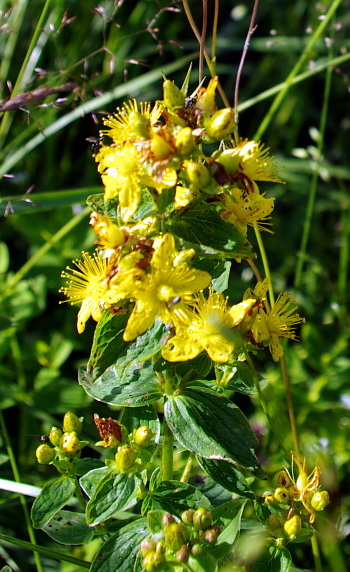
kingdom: Plantae
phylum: Tracheophyta
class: Magnoliopsida
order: Malpighiales
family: Hypericaceae
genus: Hypericum
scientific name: Hypericum maculatum
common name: Imperforate st. john's-wort
